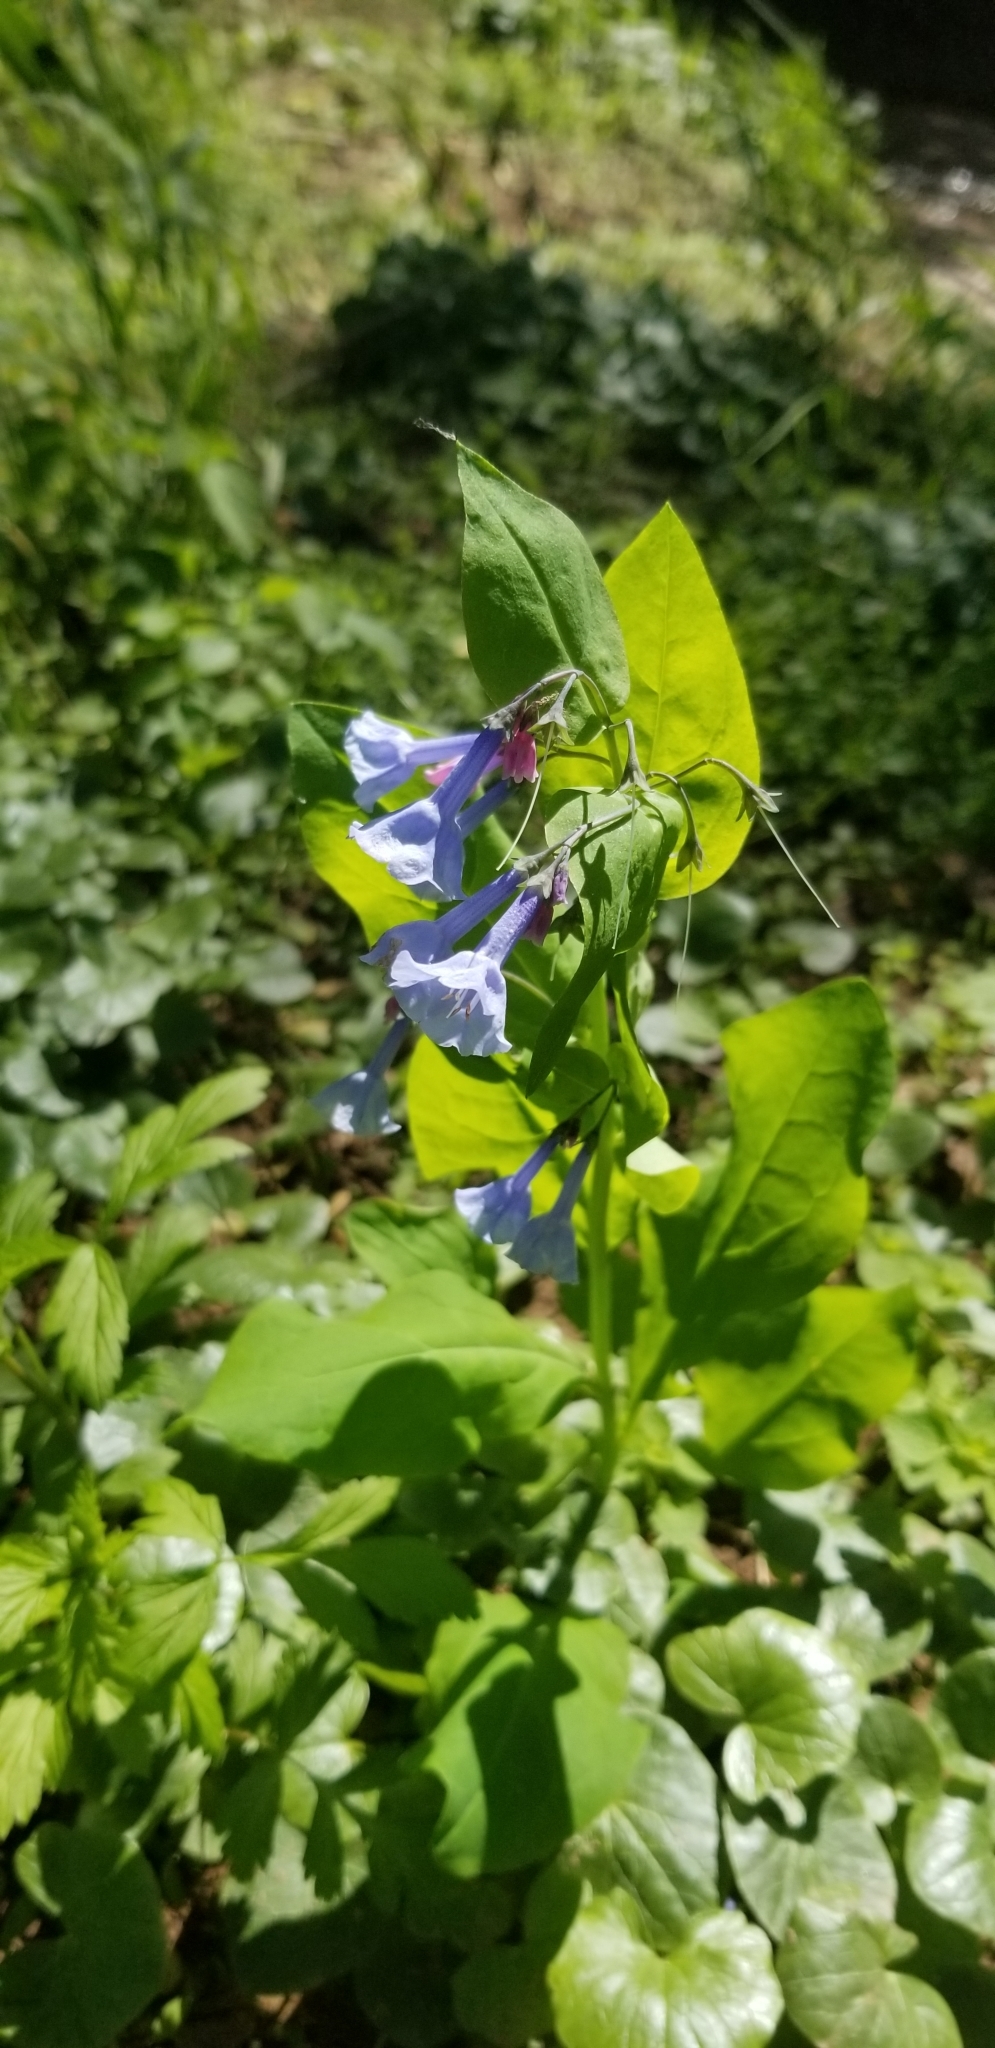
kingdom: Plantae
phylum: Tracheophyta
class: Magnoliopsida
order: Boraginales
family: Boraginaceae
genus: Mertensia
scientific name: Mertensia virginica
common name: Virginia bluebells
